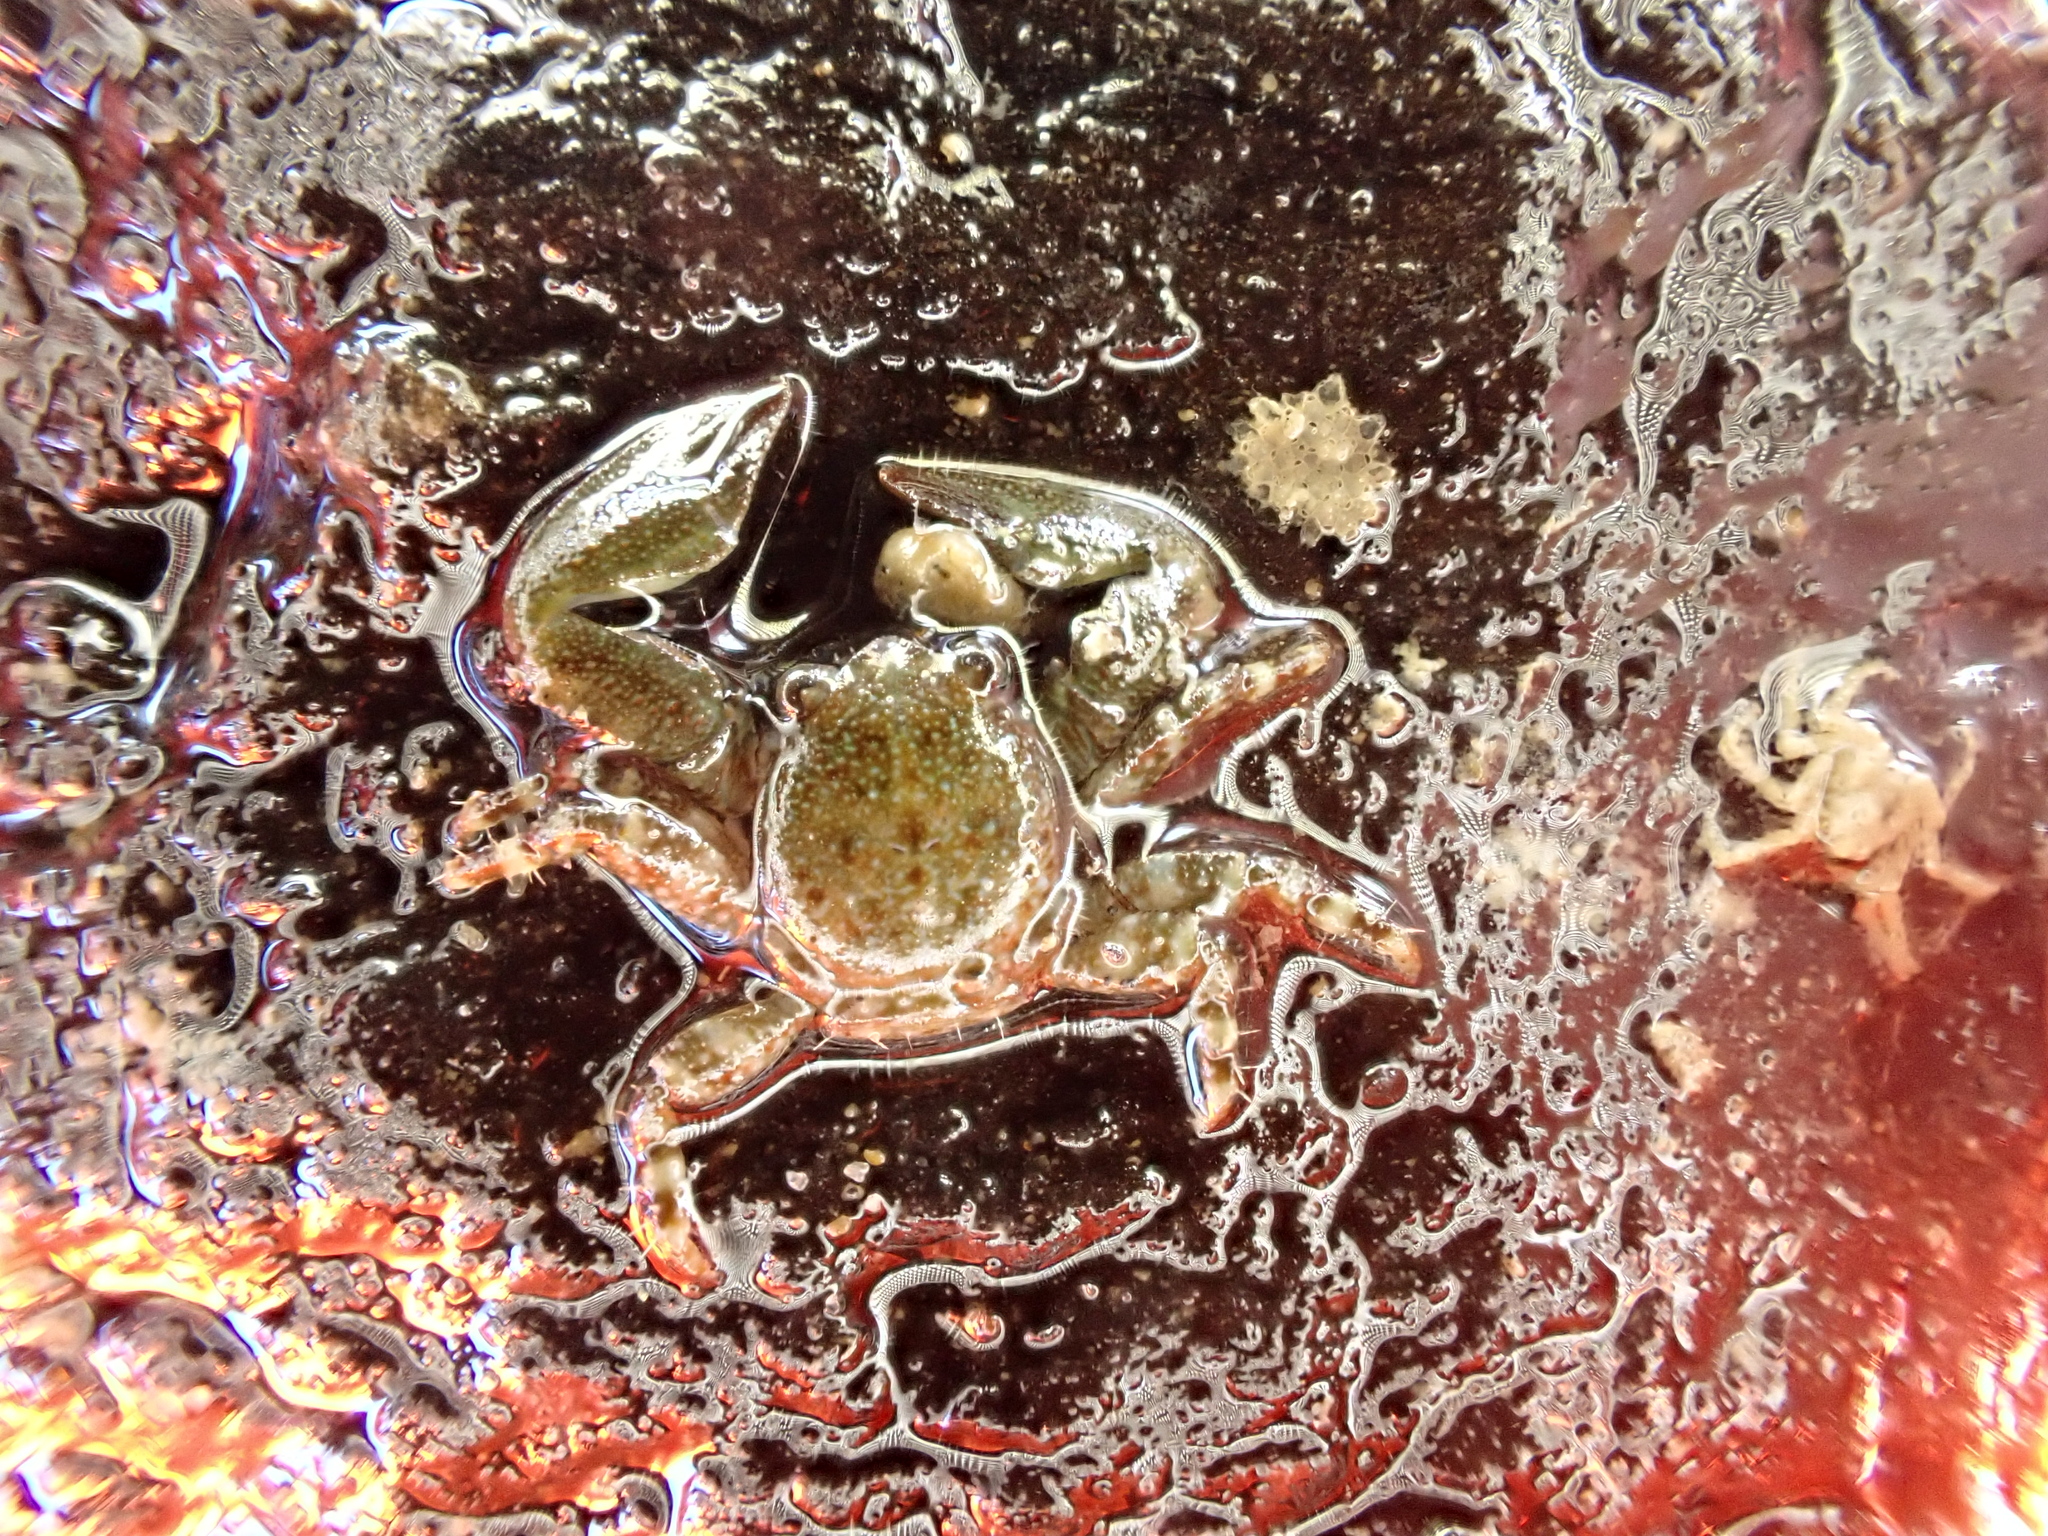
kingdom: Animalia
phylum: Arthropoda
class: Malacostraca
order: Decapoda
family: Porcellanidae
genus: Petrolisthes
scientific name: Petrolisthes elongatus
